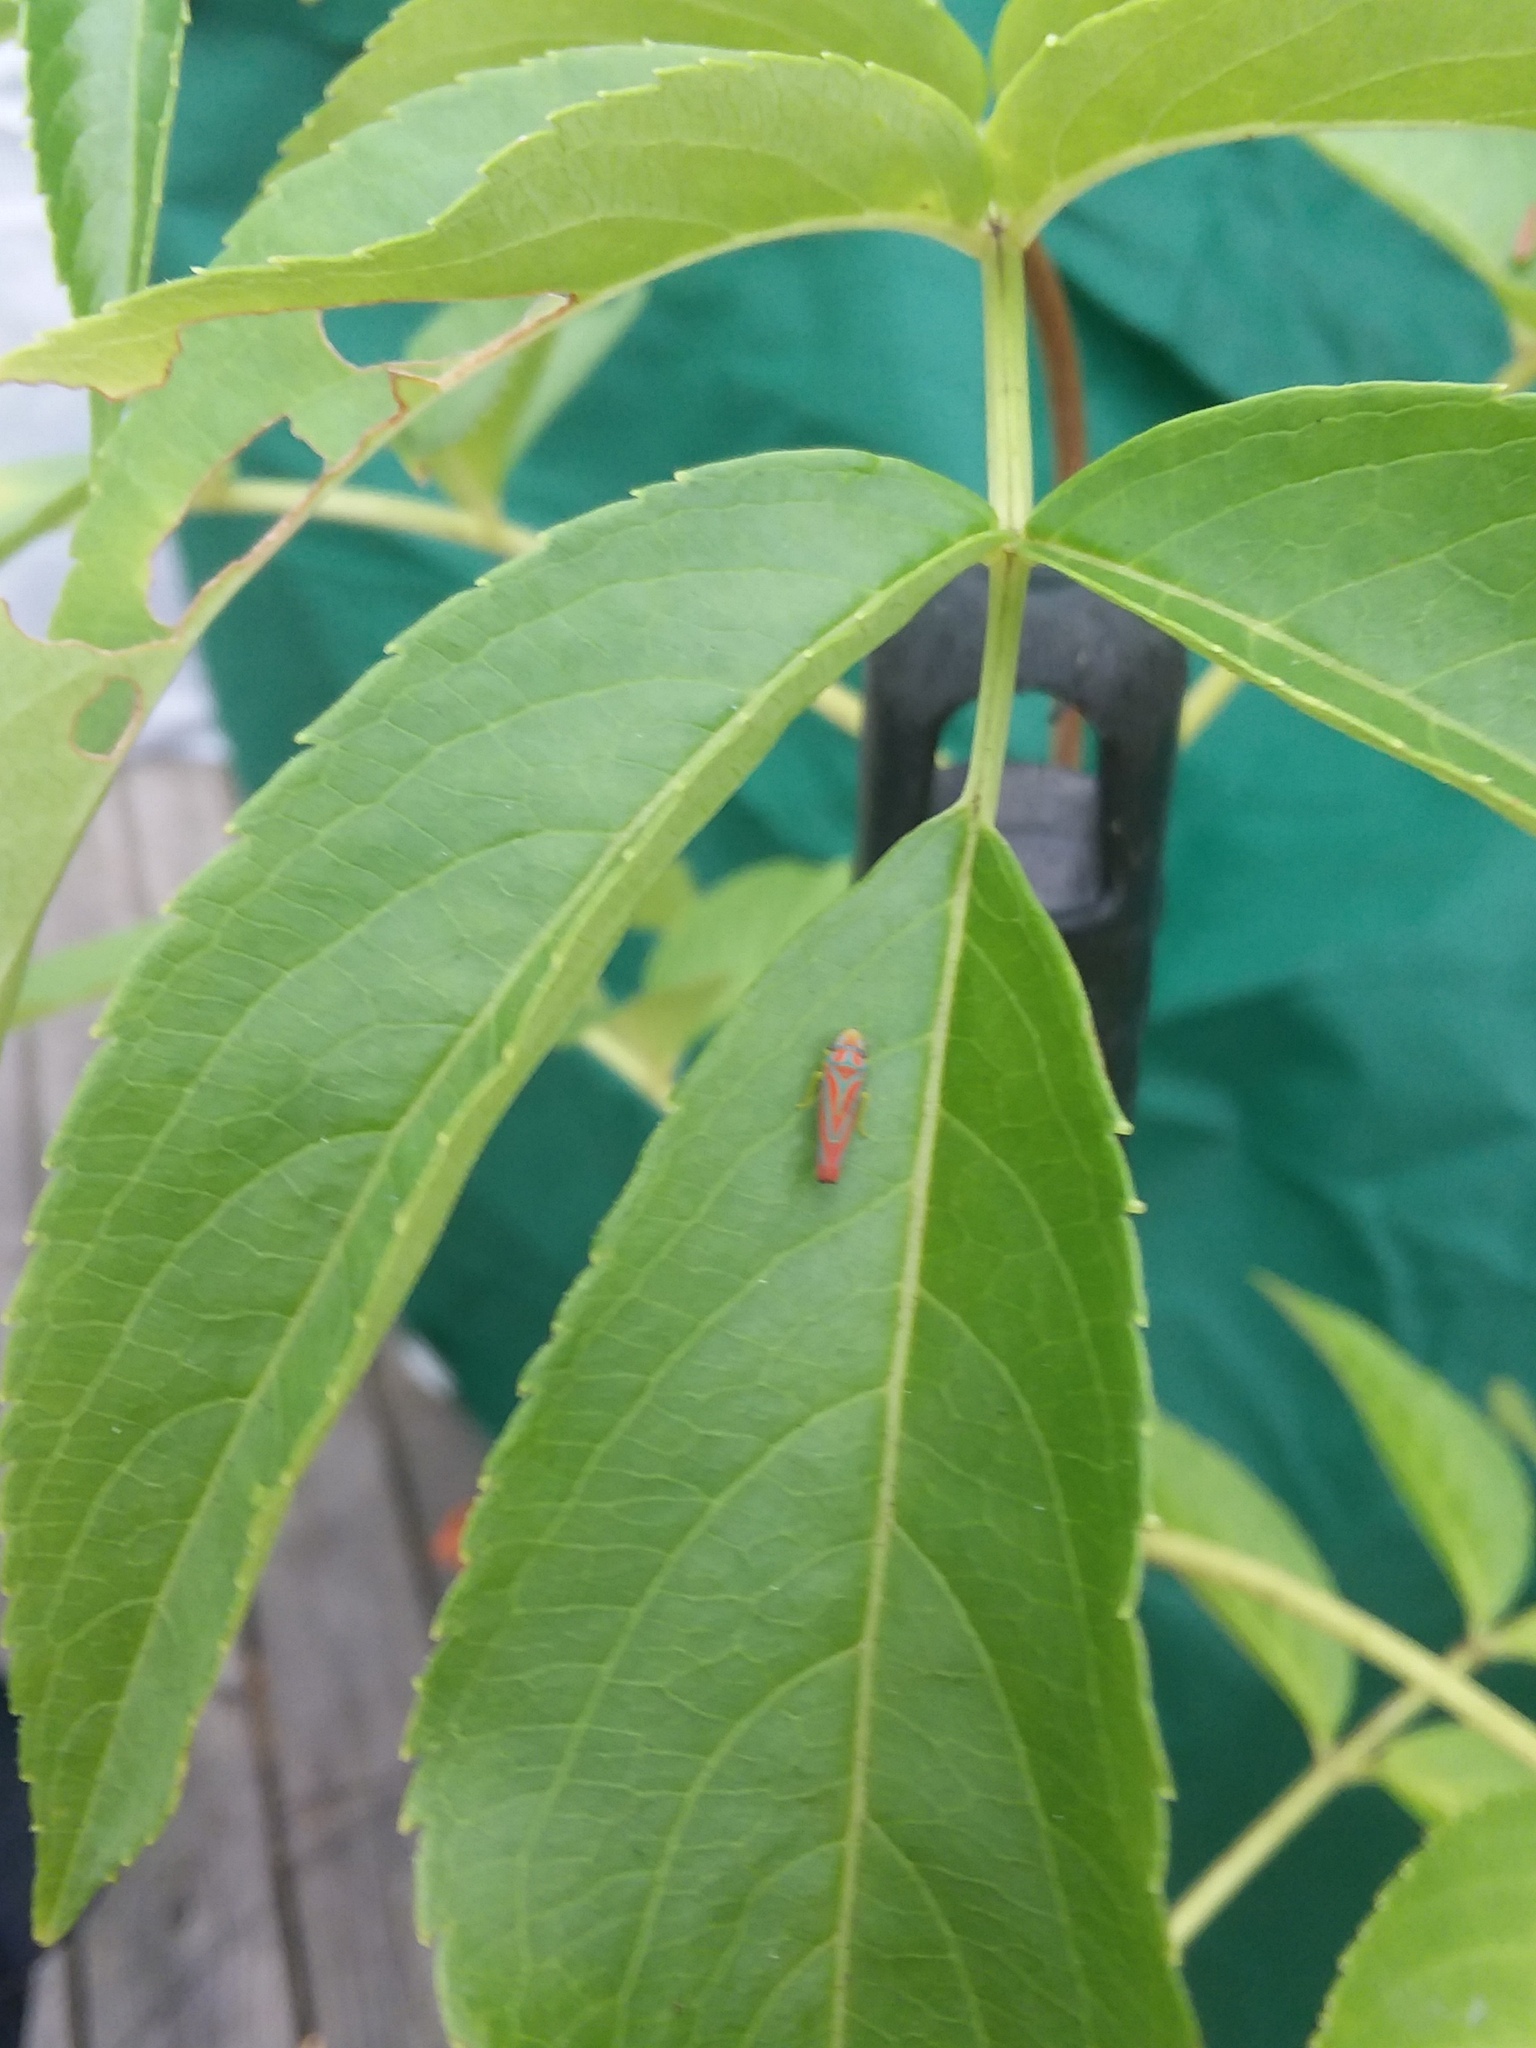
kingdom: Animalia
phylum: Arthropoda
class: Insecta
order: Hemiptera
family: Cicadellidae
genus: Graphocephala
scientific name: Graphocephala coccinea
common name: Candy-striped leafhopper
